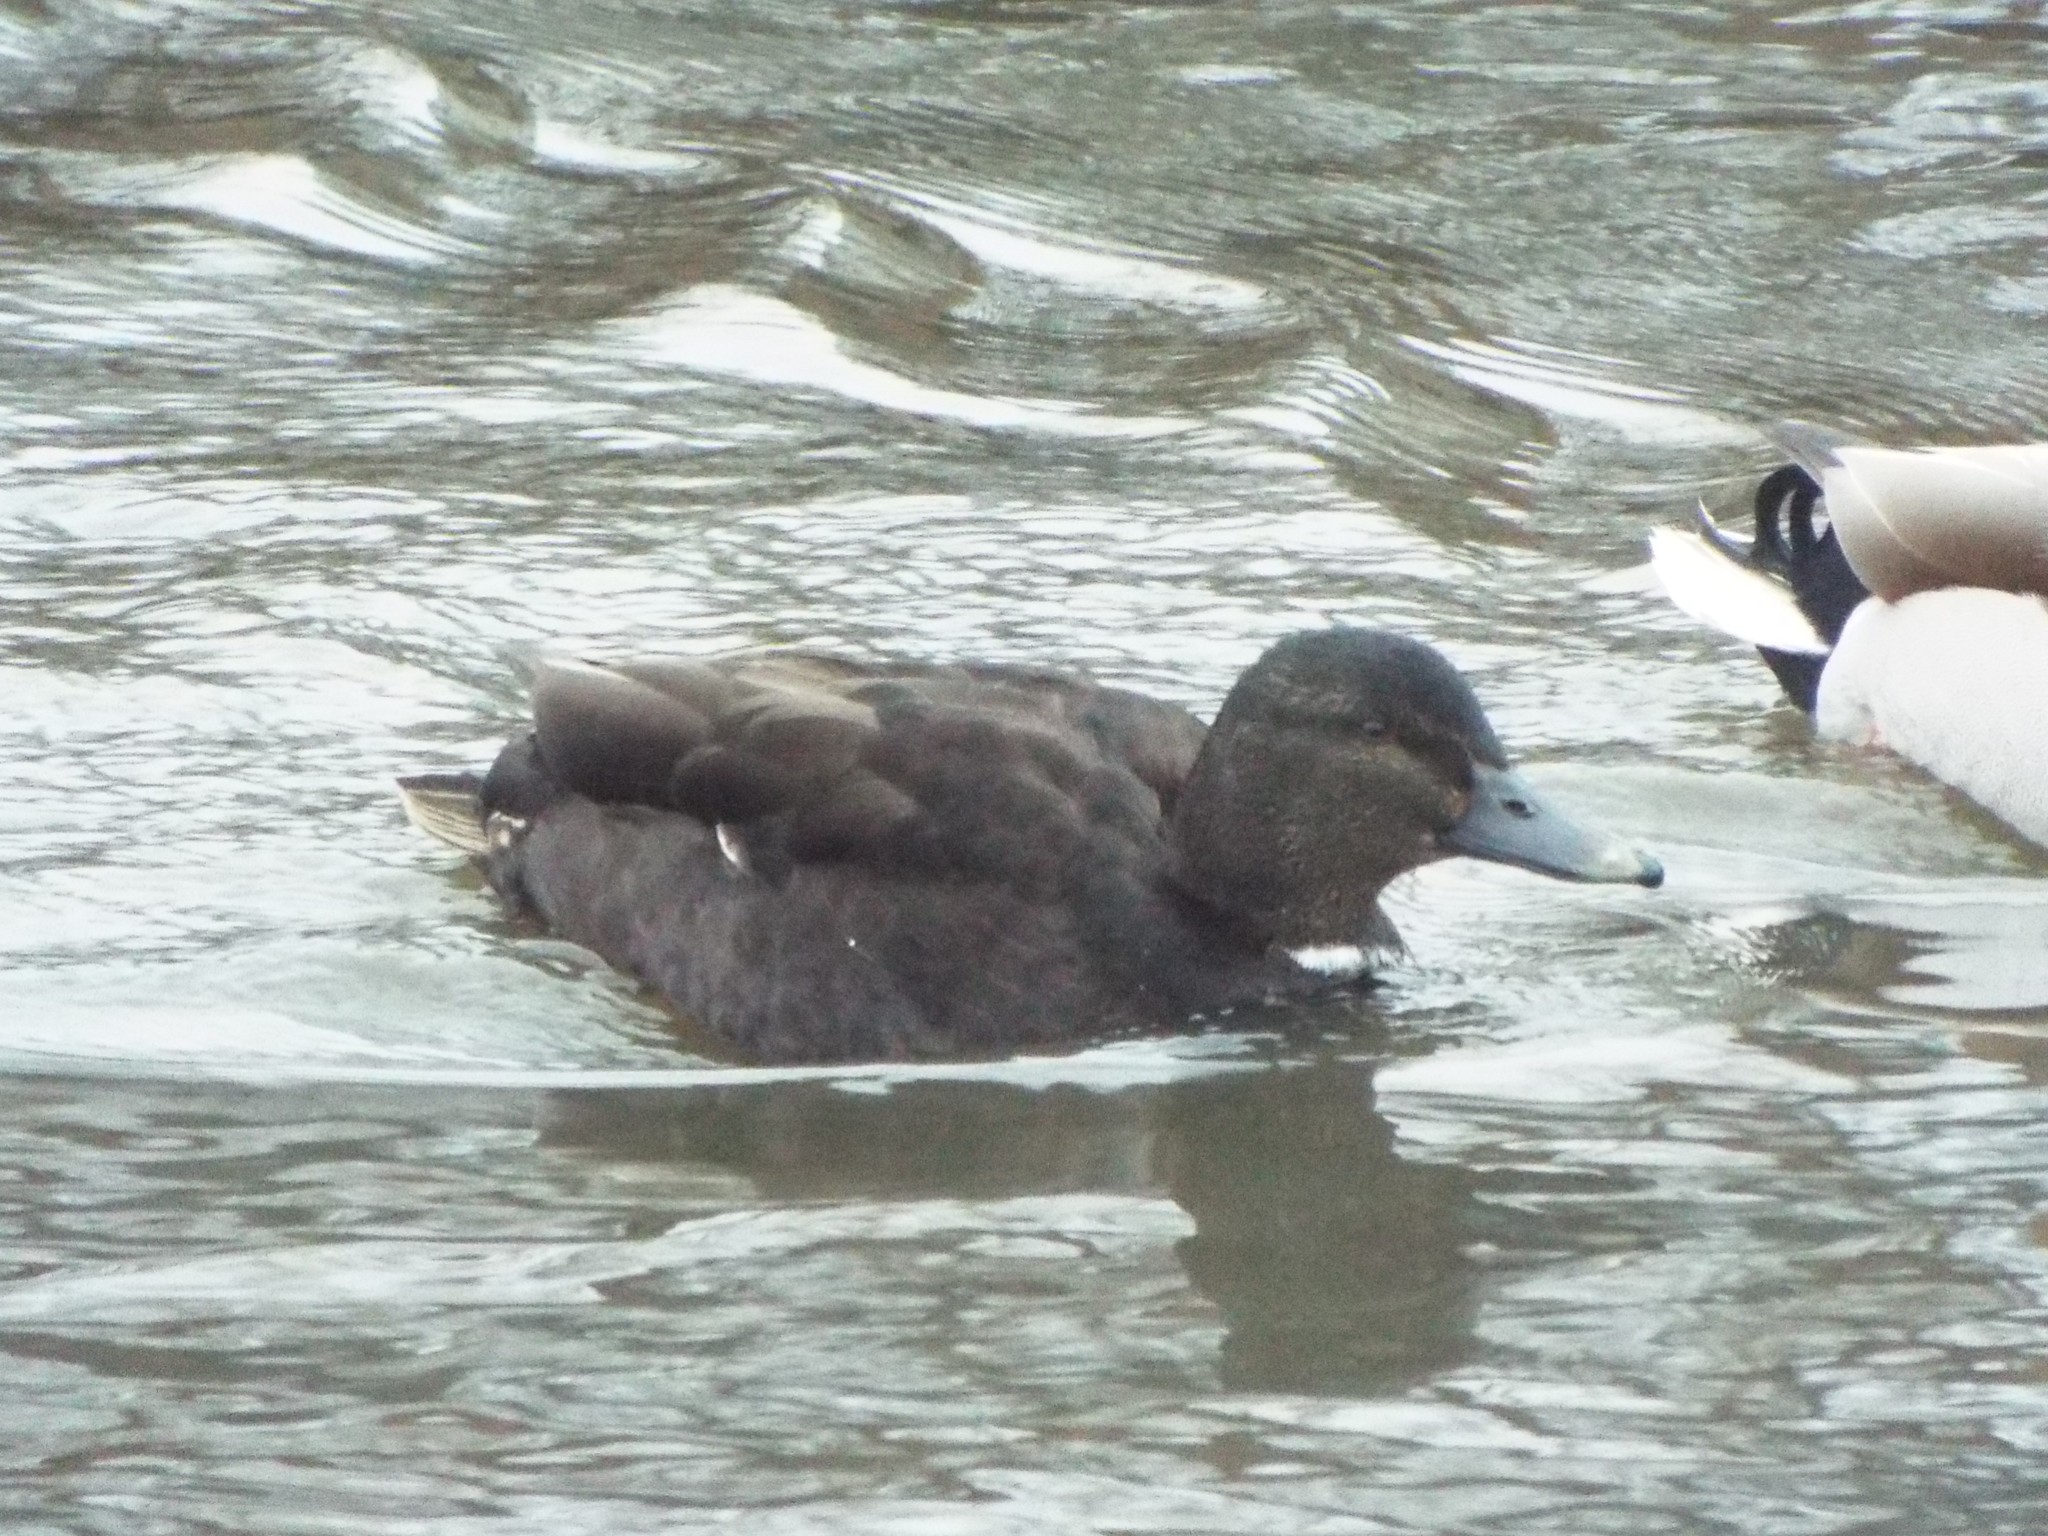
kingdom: Animalia
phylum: Chordata
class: Aves
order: Anseriformes
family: Anatidae
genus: Anas
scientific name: Anas platyrhynchos
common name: Mallard
